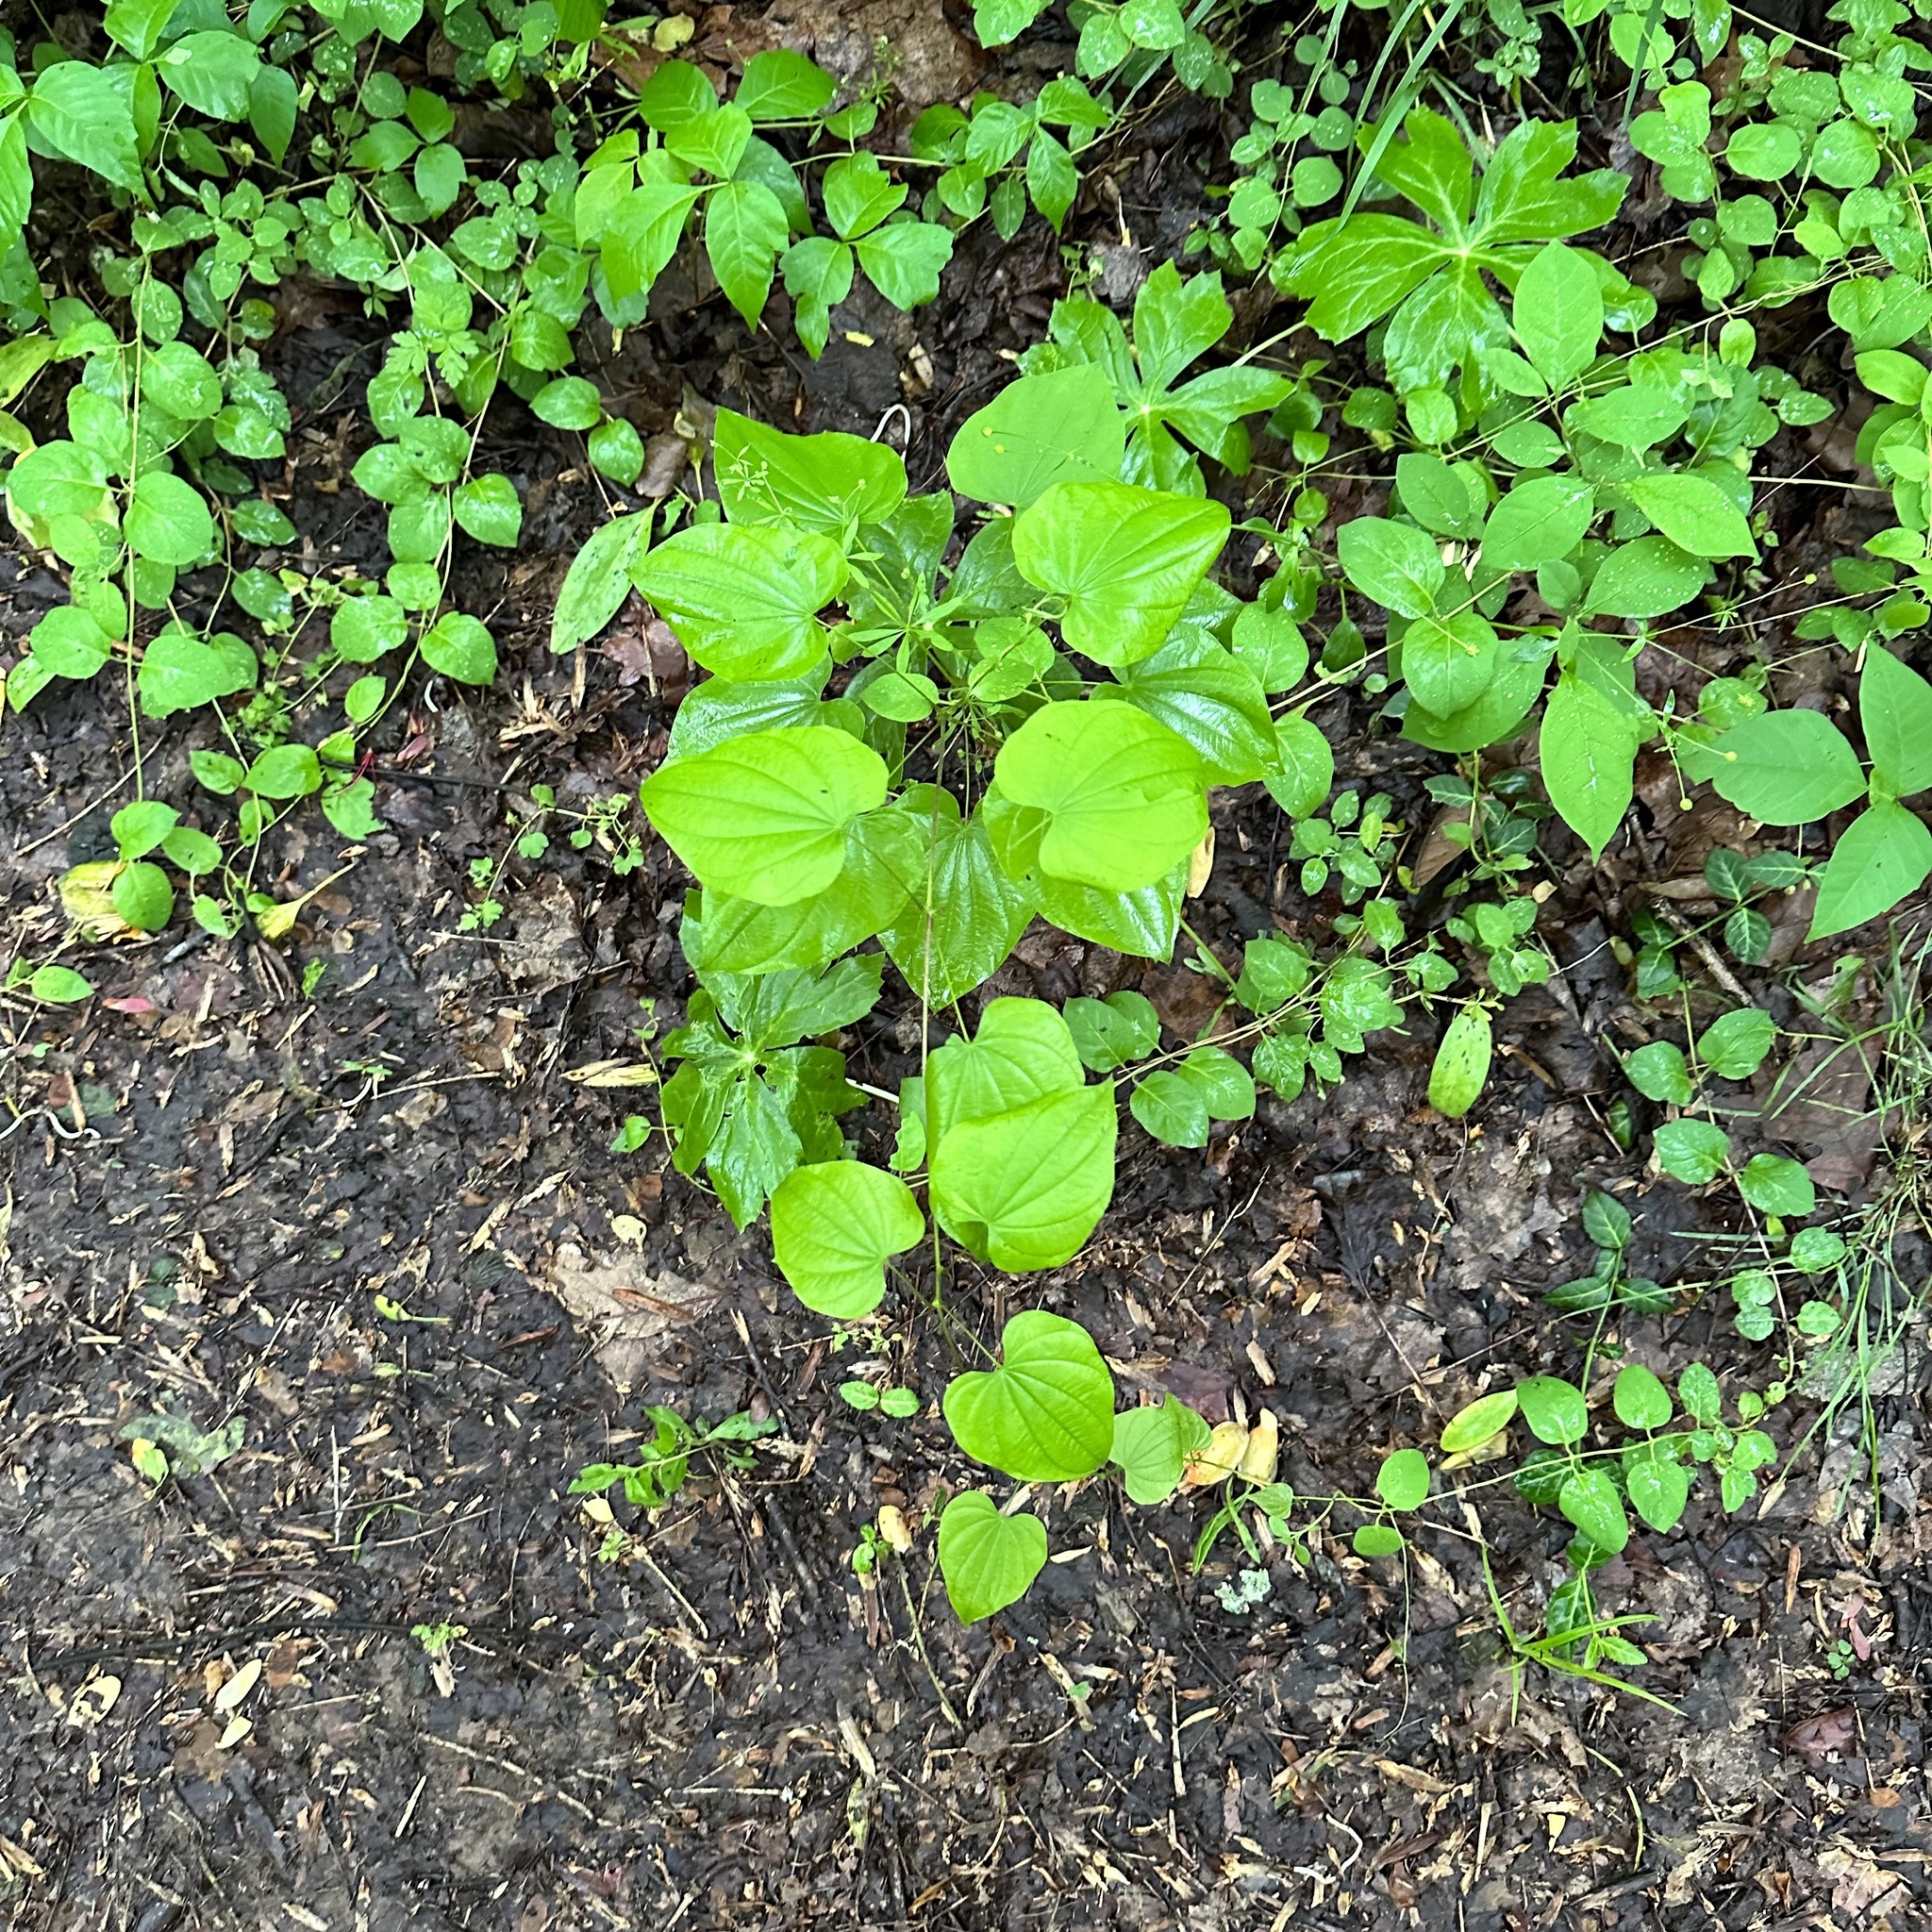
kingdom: Plantae
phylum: Tracheophyta
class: Liliopsida
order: Dioscoreales
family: Dioscoreaceae
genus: Dioscorea
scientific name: Dioscorea villosa
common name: Wild yam
